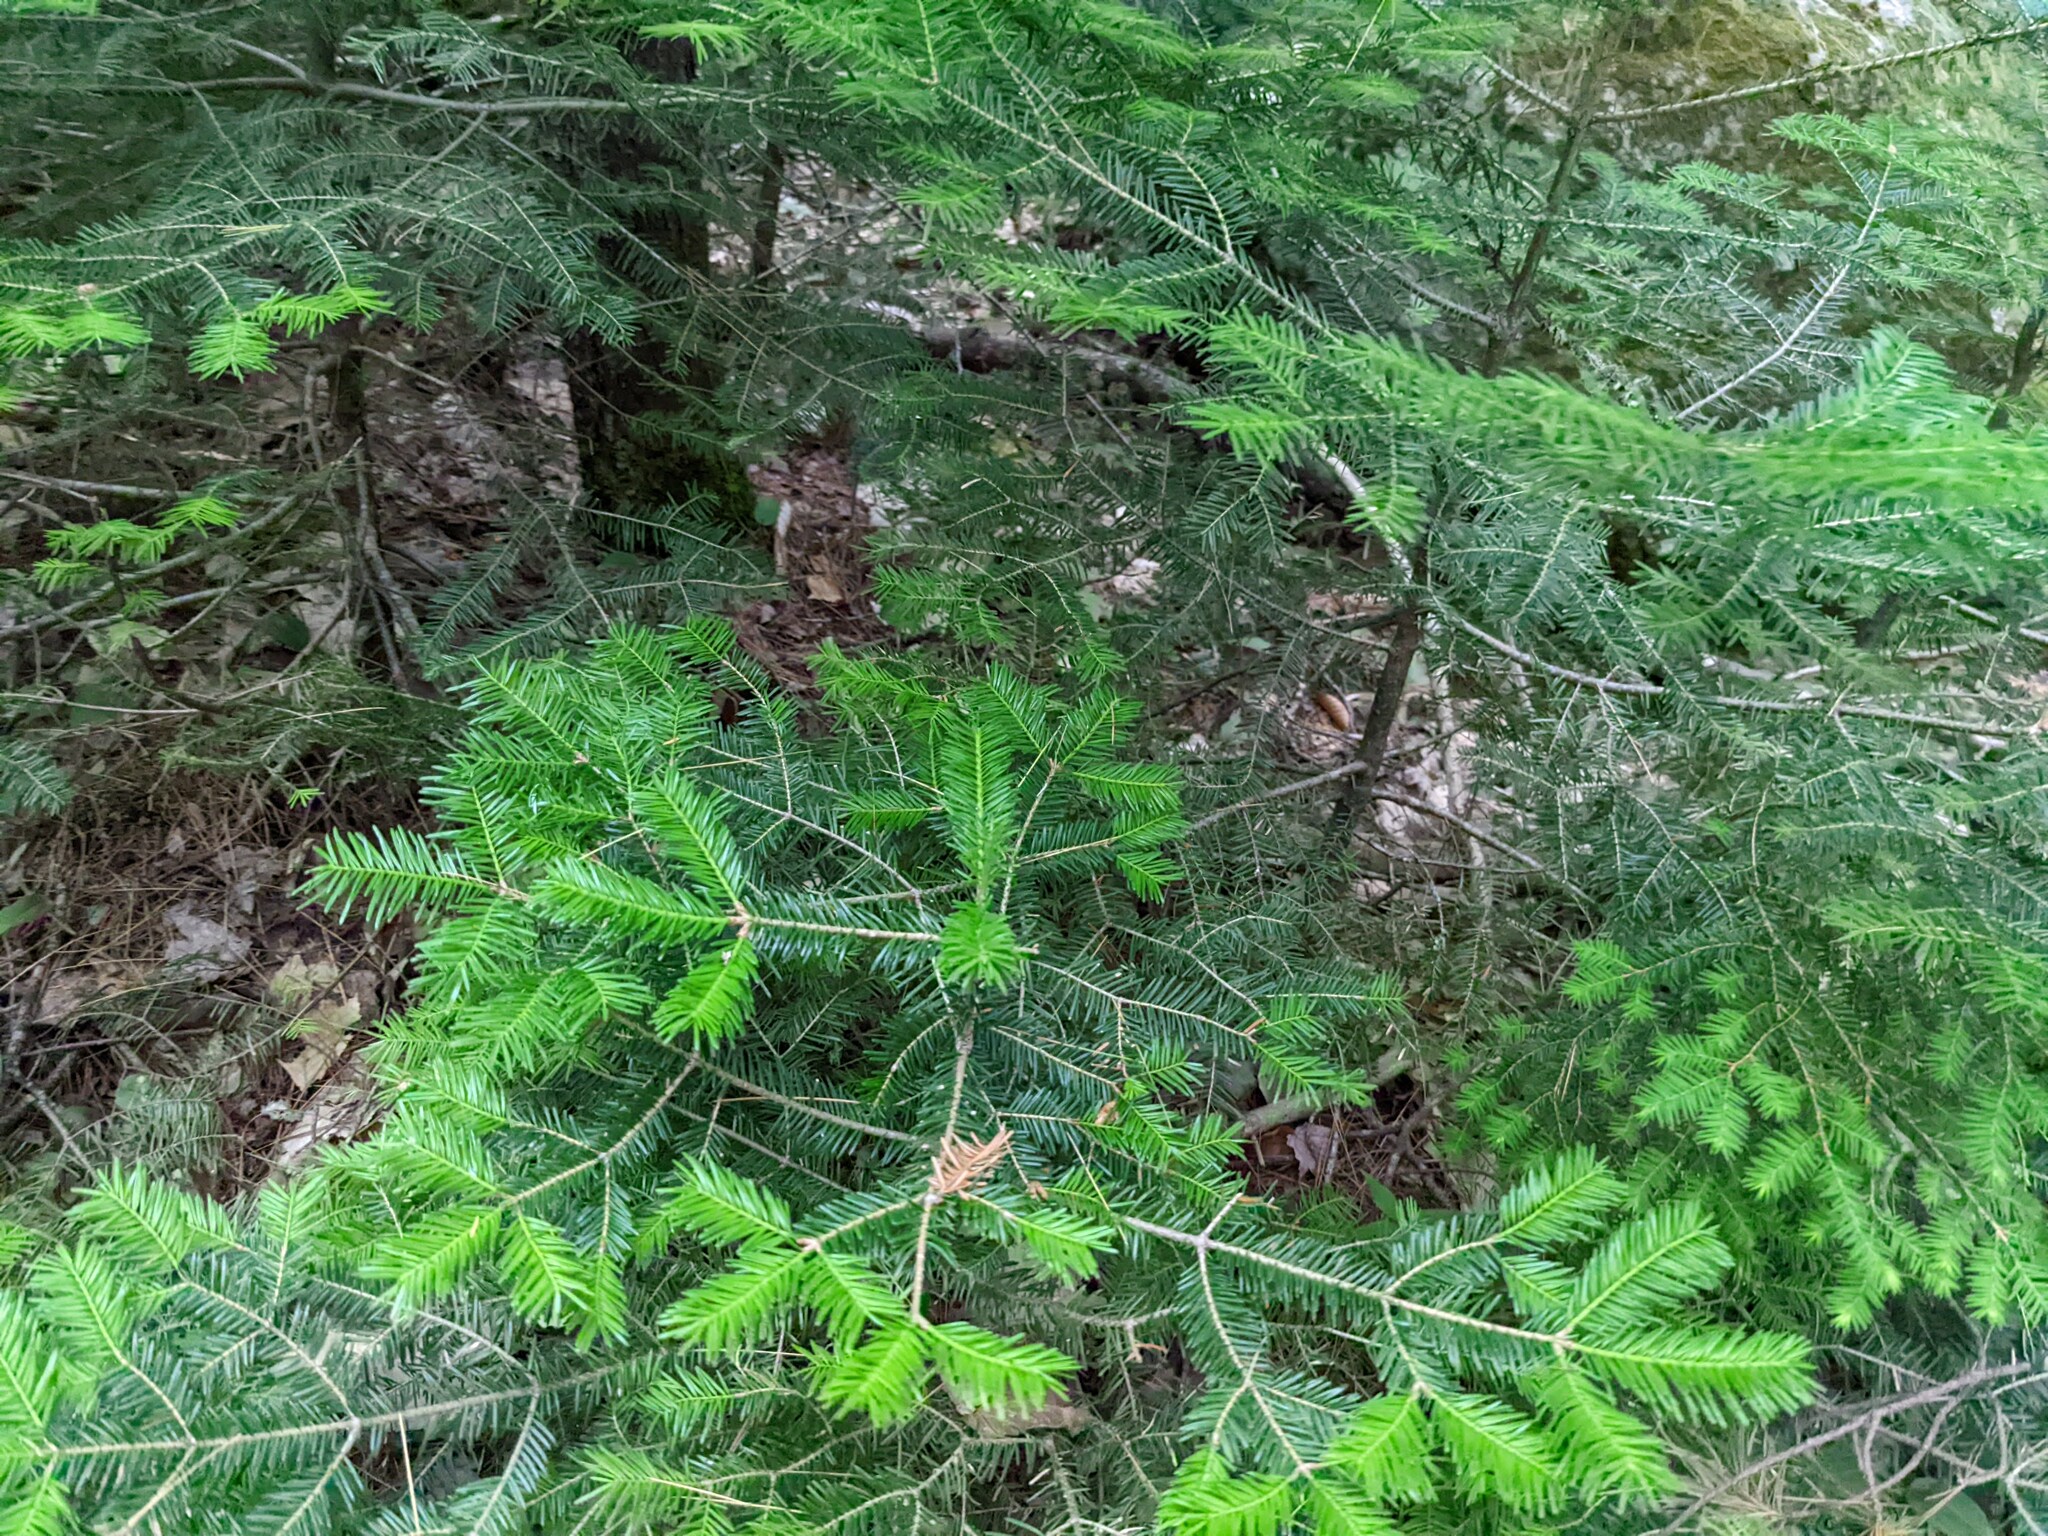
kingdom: Plantae
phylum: Tracheophyta
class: Pinopsida
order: Pinales
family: Pinaceae
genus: Abies
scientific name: Abies balsamea
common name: Balsam fir
